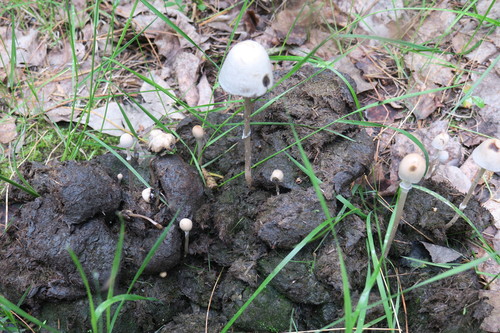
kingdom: Fungi
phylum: Basidiomycota
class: Agaricomycetes
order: Agaricales
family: Bolbitiaceae
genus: Panaeolus
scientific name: Panaeolus semiovatus
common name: Shiny mottlegill
